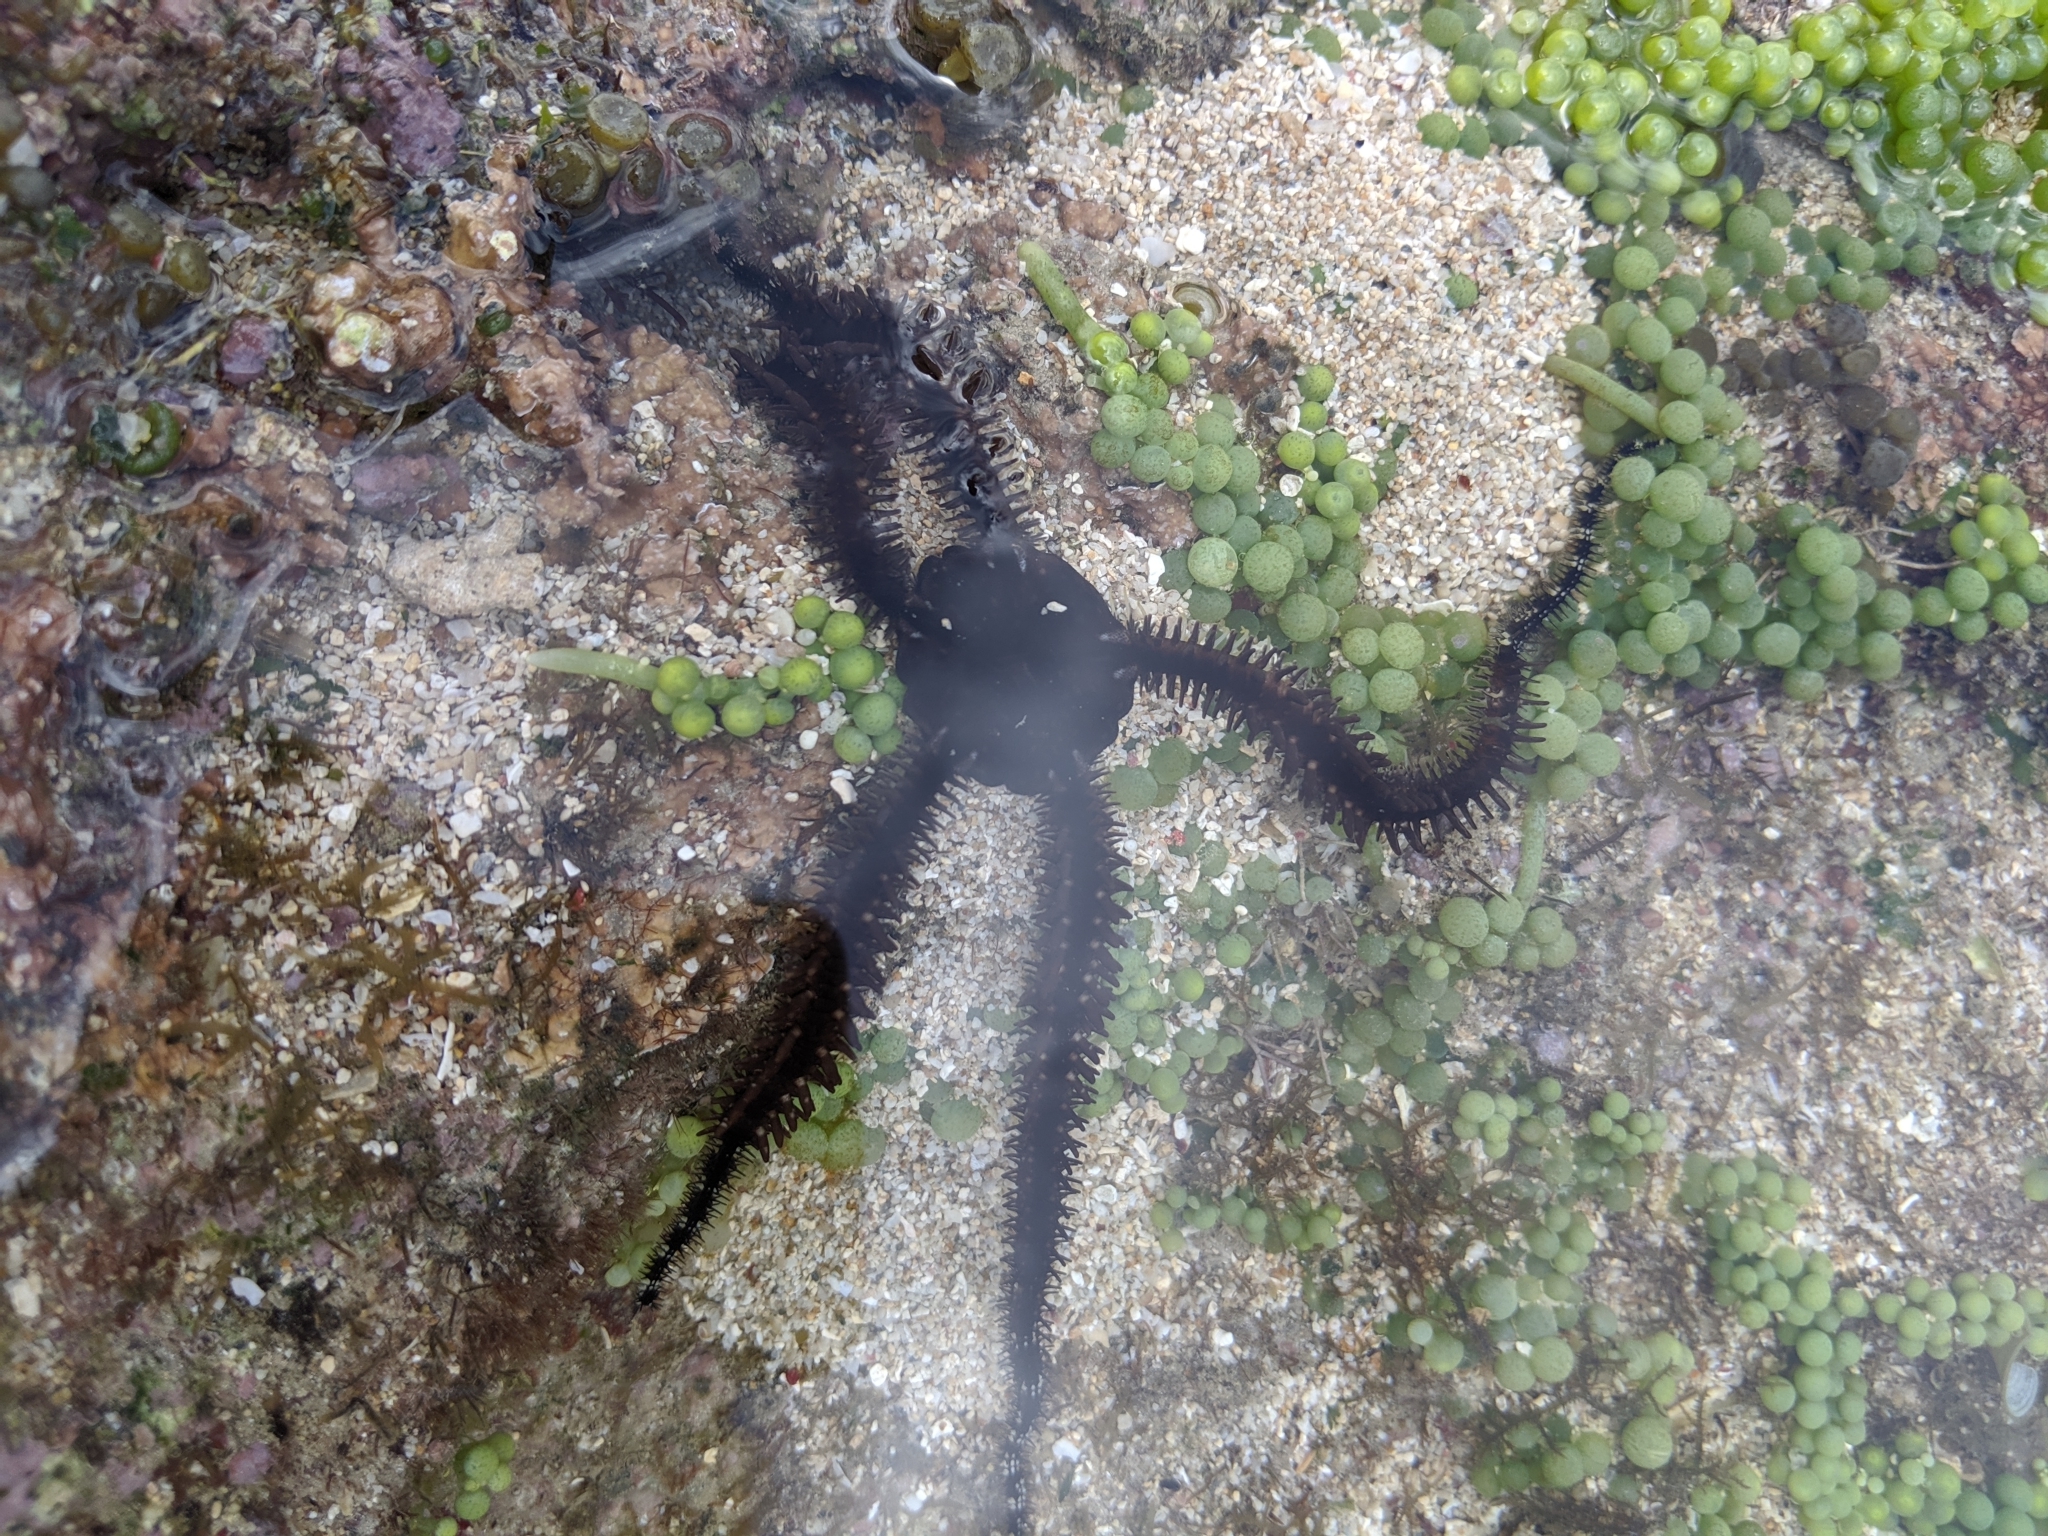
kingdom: Animalia
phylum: Echinodermata
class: Ophiuroidea
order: Ophiacanthida
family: Ophiocomidae
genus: Ophiocoma
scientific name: Ophiocoma scolopendrina
